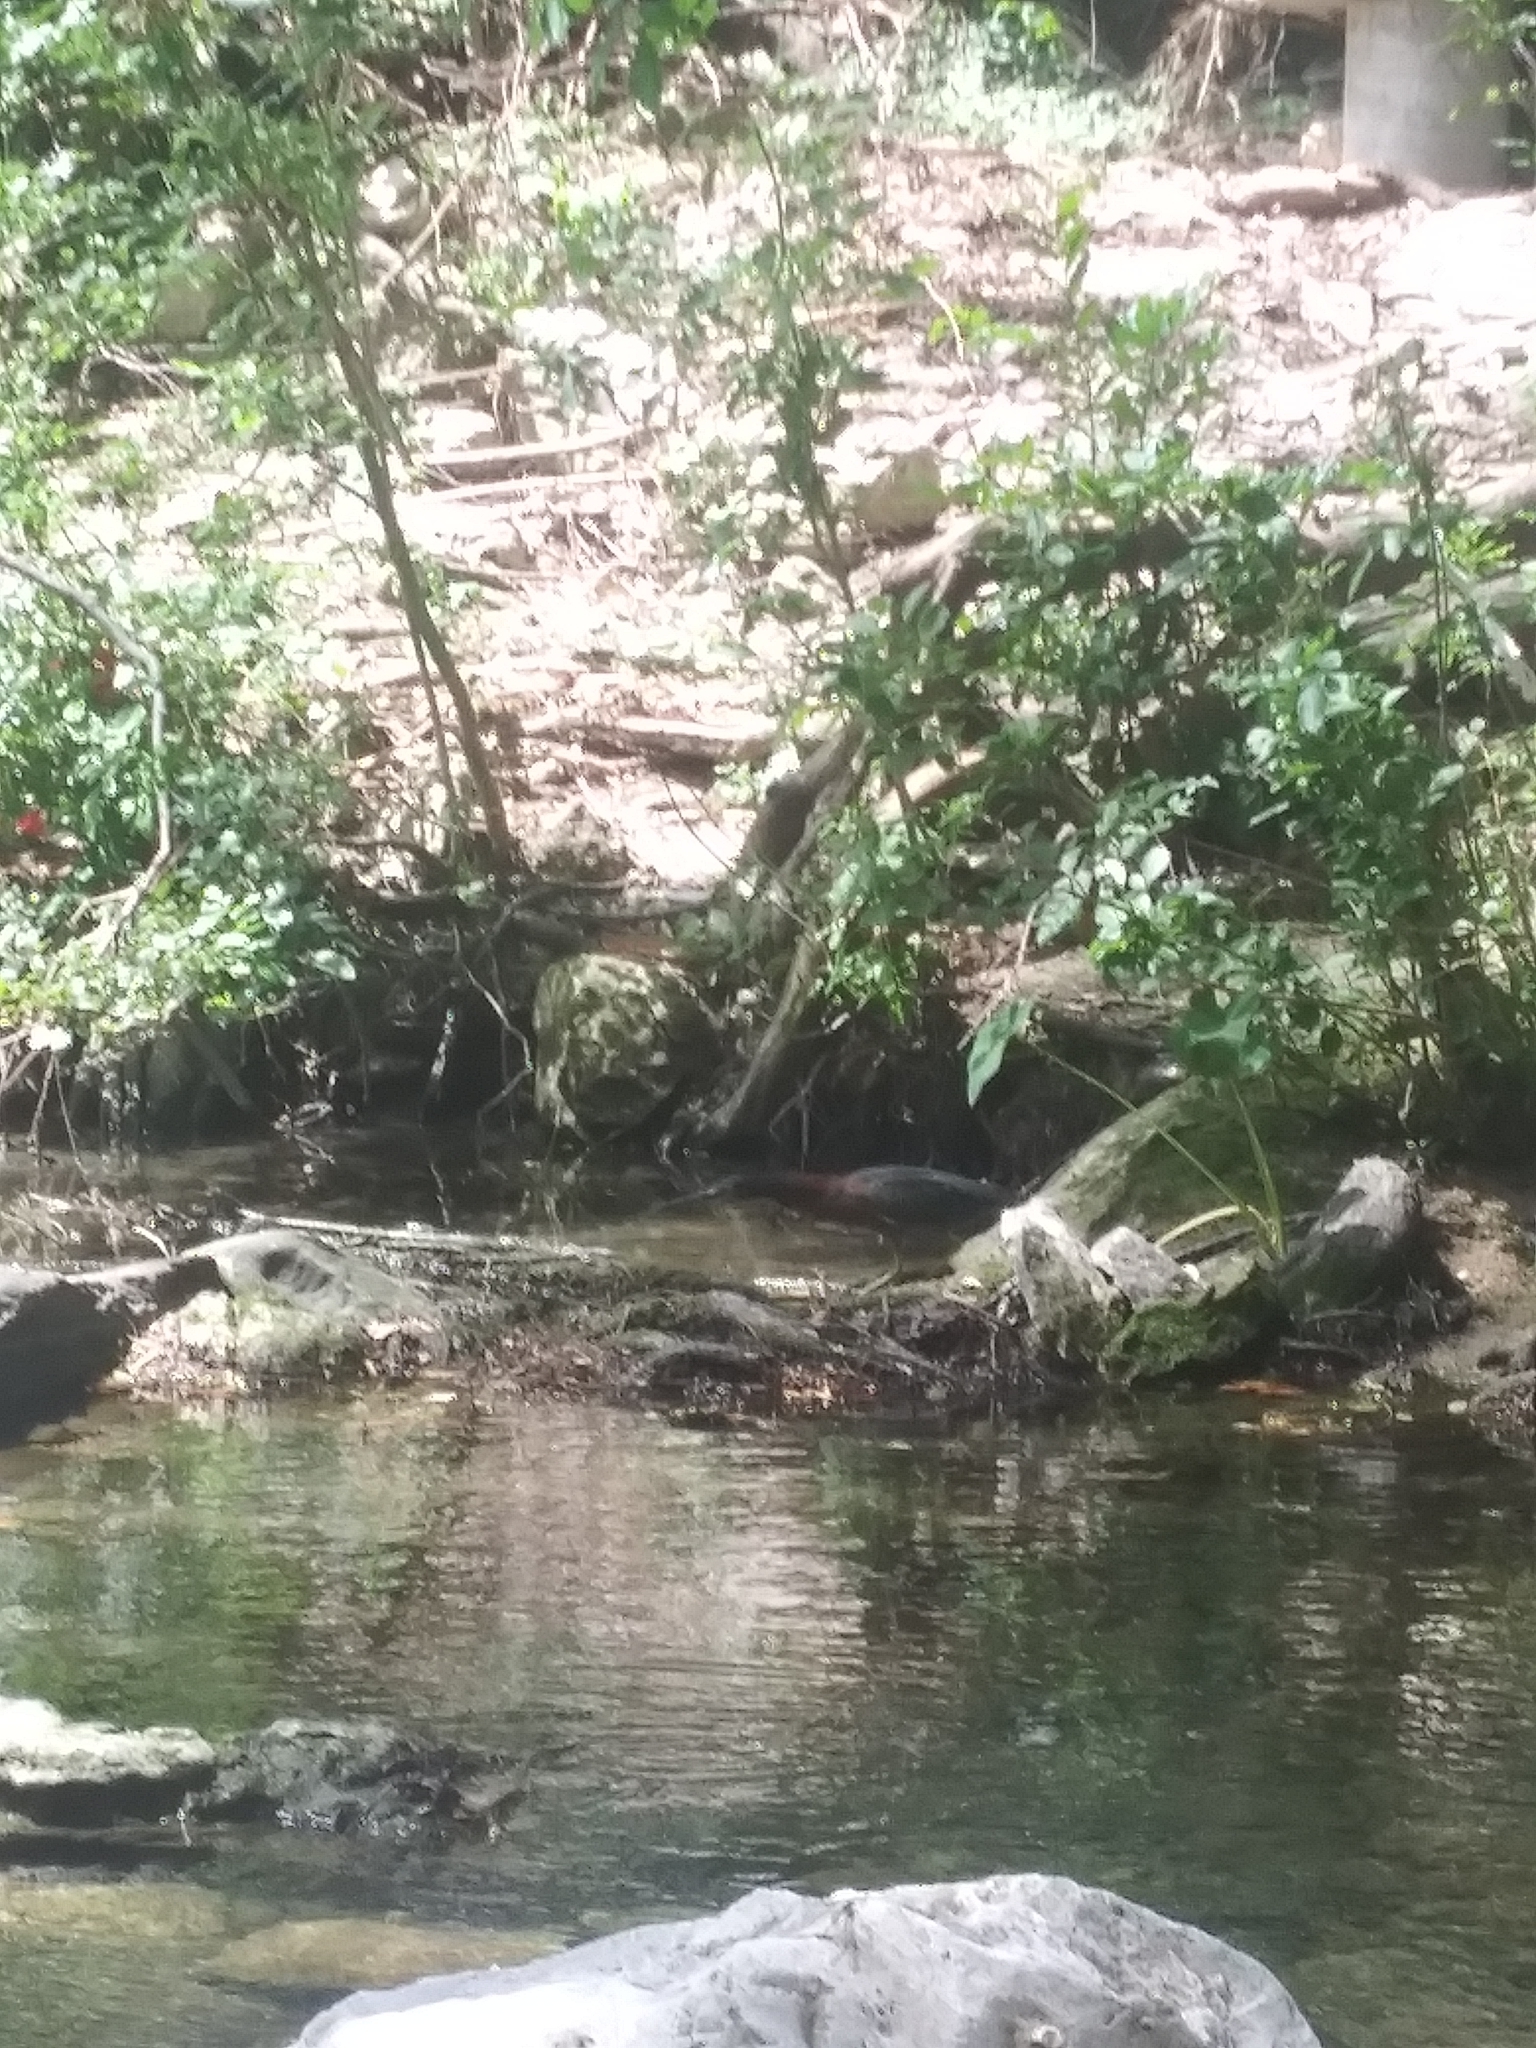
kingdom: Animalia
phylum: Chordata
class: Aves
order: Pelecaniformes
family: Ardeidae
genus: Butorides
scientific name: Butorides virescens
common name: Green heron
